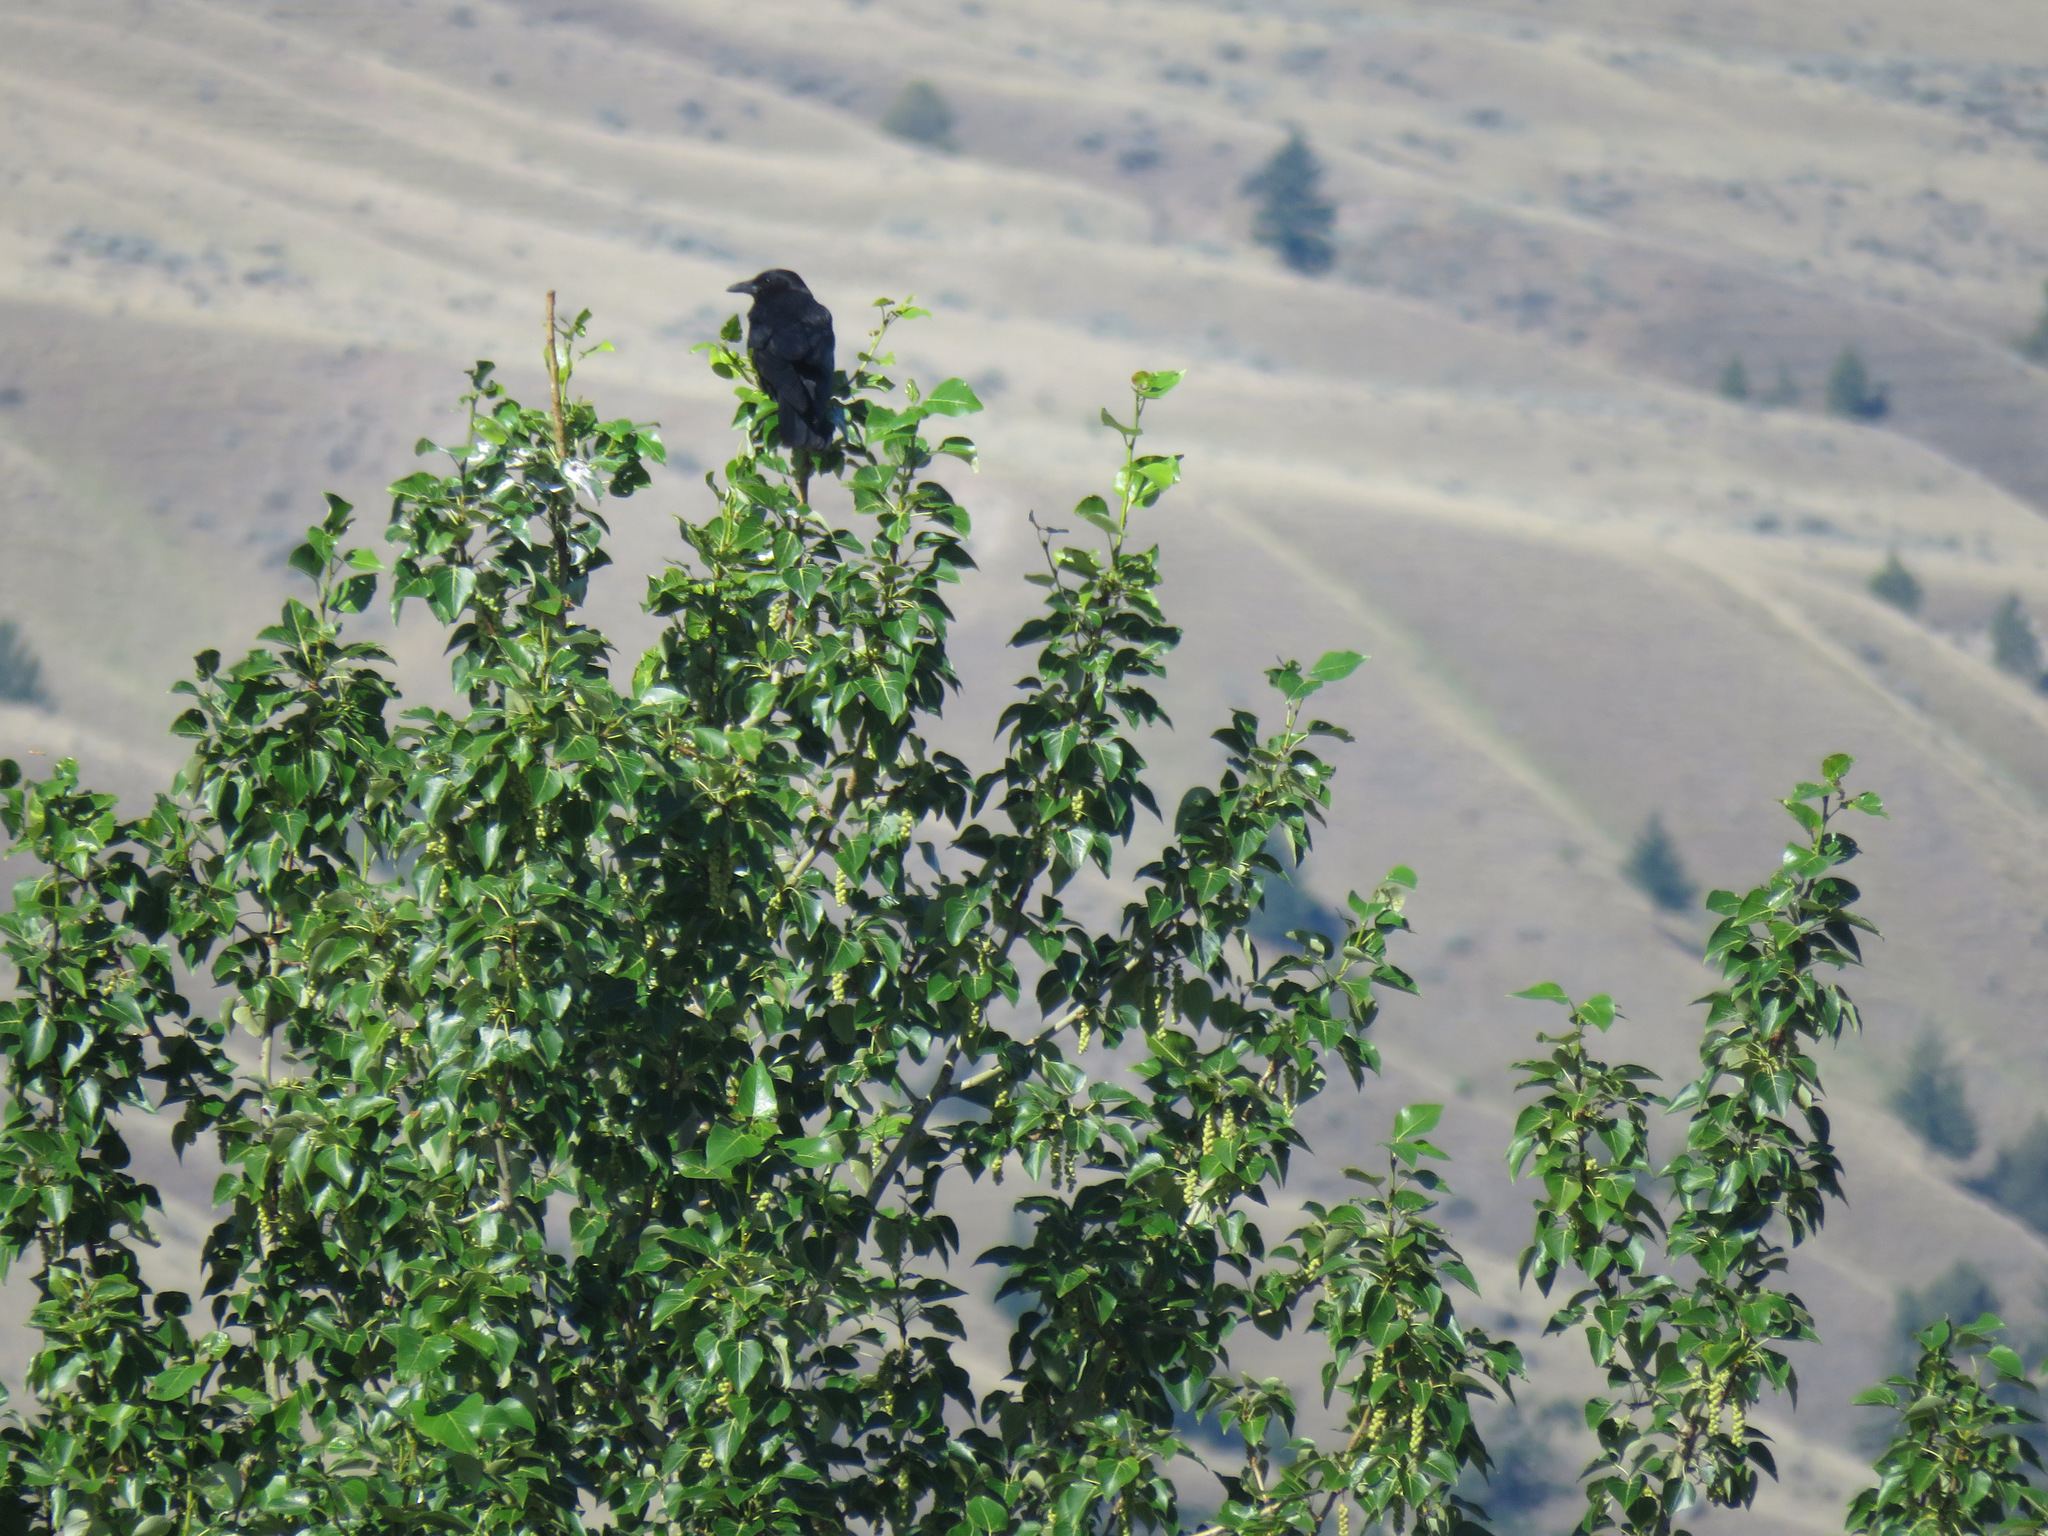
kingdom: Animalia
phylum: Chordata
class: Aves
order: Passeriformes
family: Corvidae
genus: Corvus
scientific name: Corvus brachyrhynchos
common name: American crow
